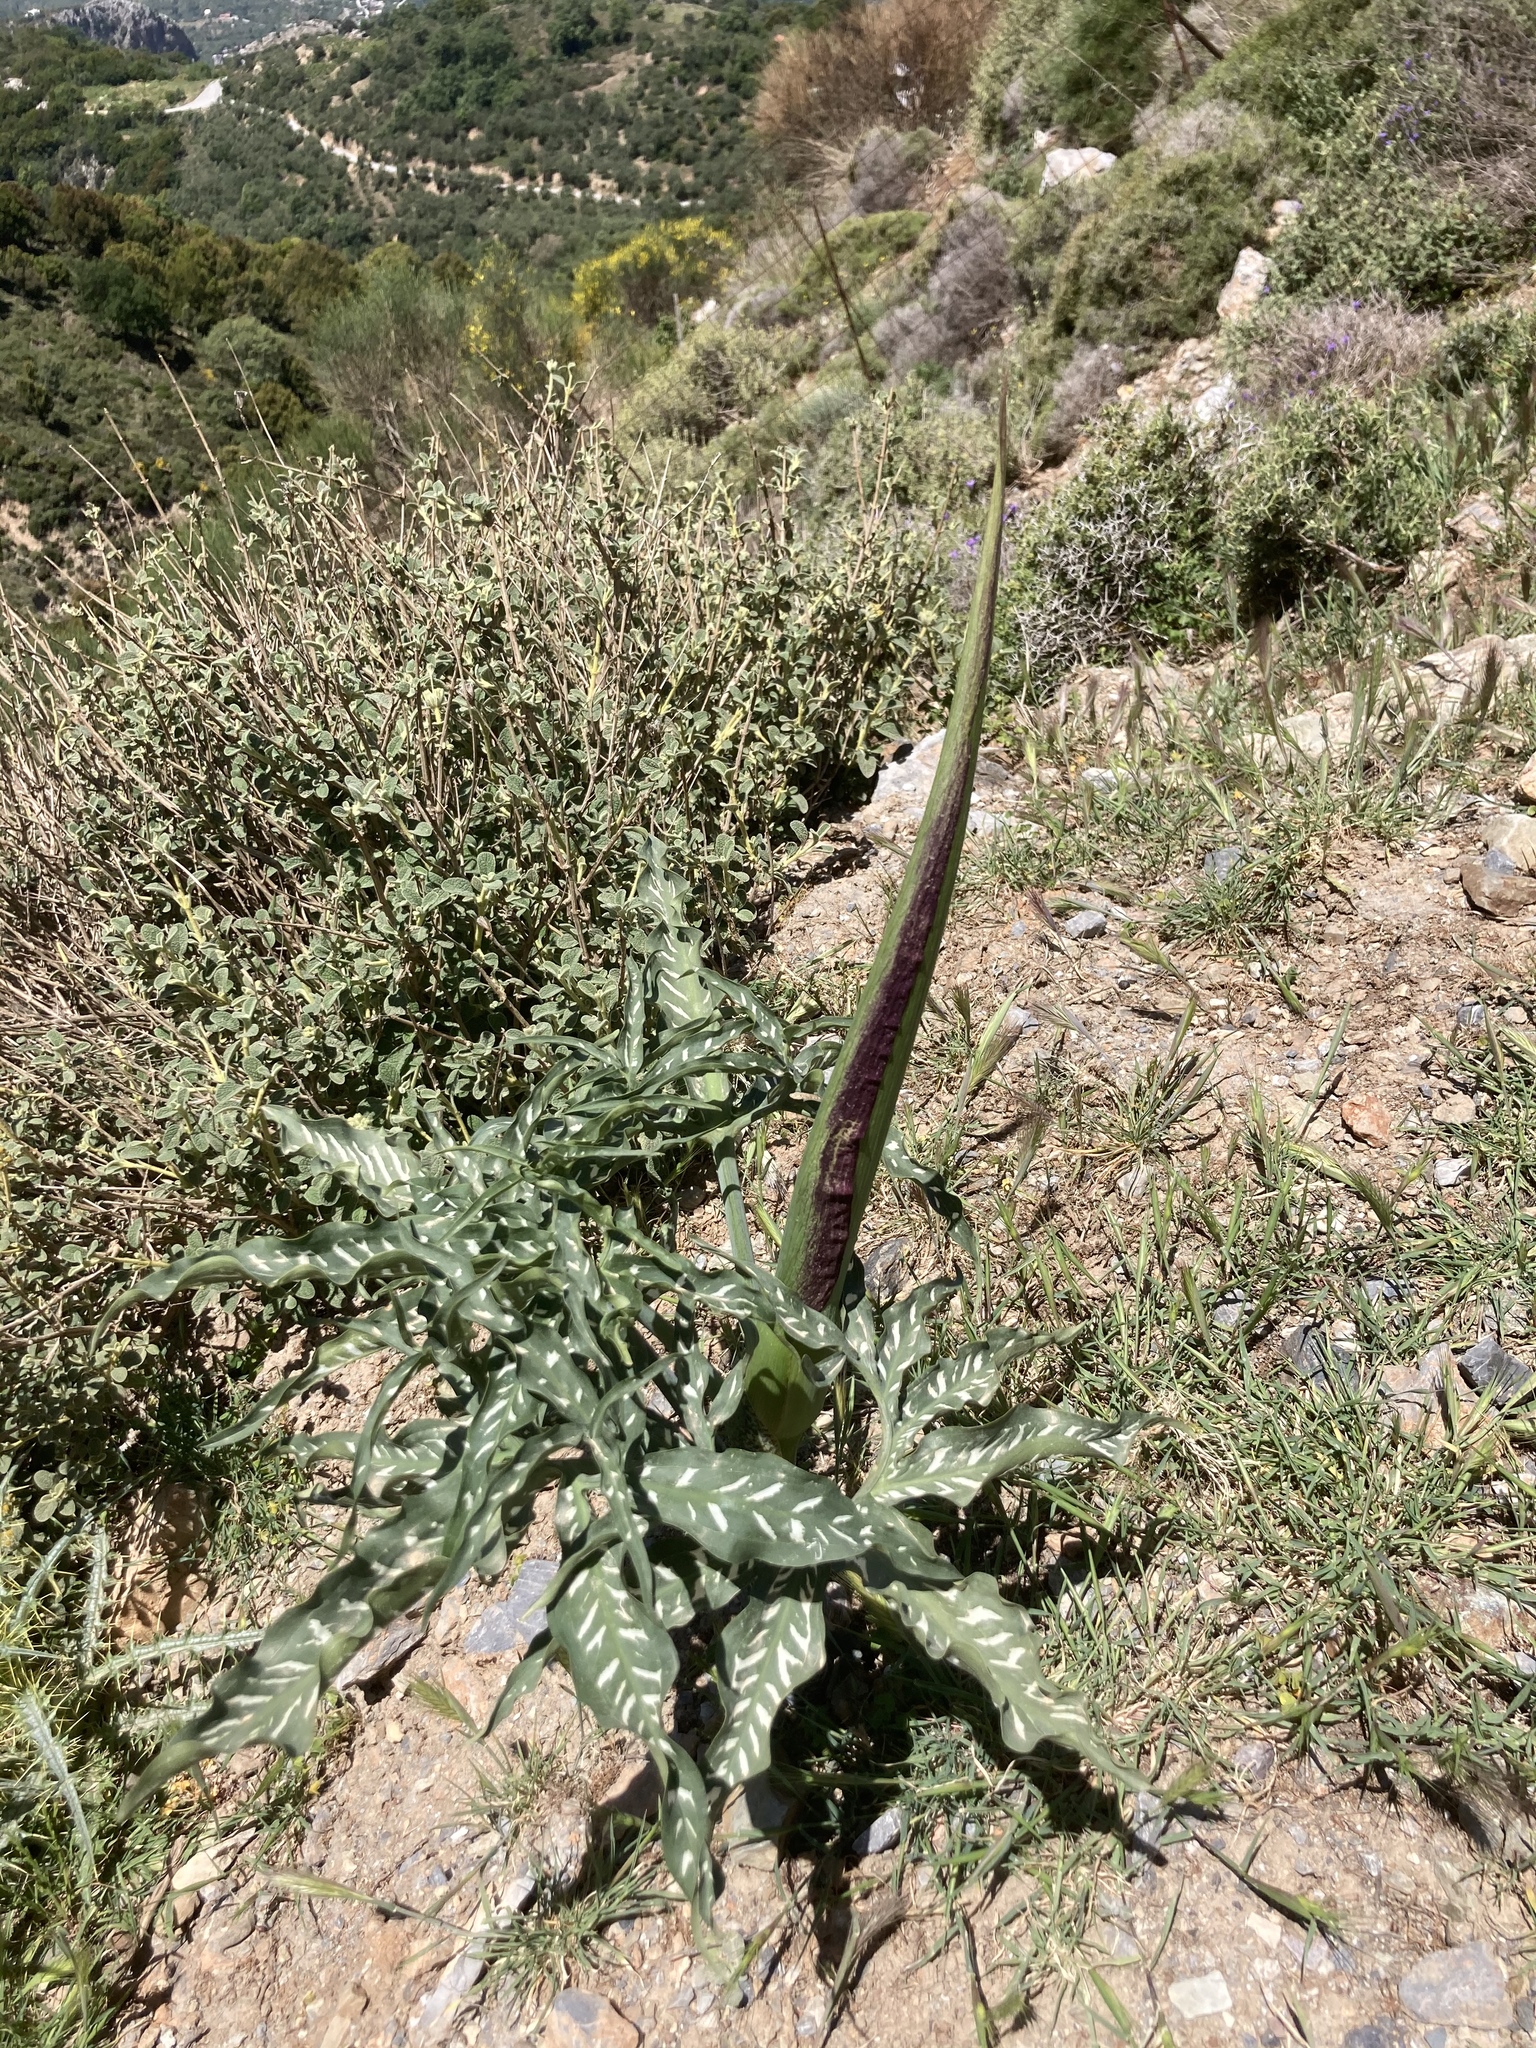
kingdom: Plantae
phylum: Tracheophyta
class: Liliopsida
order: Alismatales
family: Araceae
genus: Dracunculus
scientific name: Dracunculus vulgaris
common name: Dragon arum
